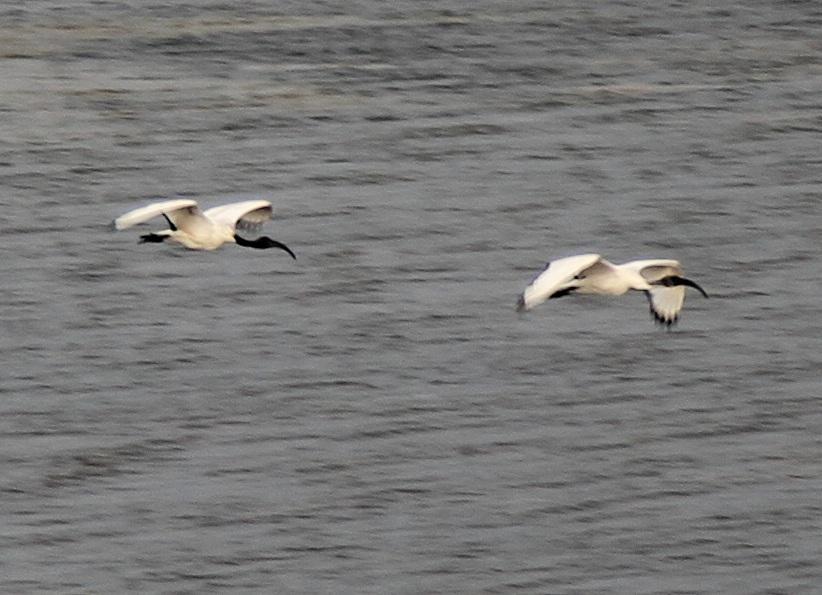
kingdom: Animalia
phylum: Chordata
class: Aves
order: Pelecaniformes
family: Threskiornithidae
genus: Threskiornis
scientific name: Threskiornis aethiopicus
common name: Sacred ibis
